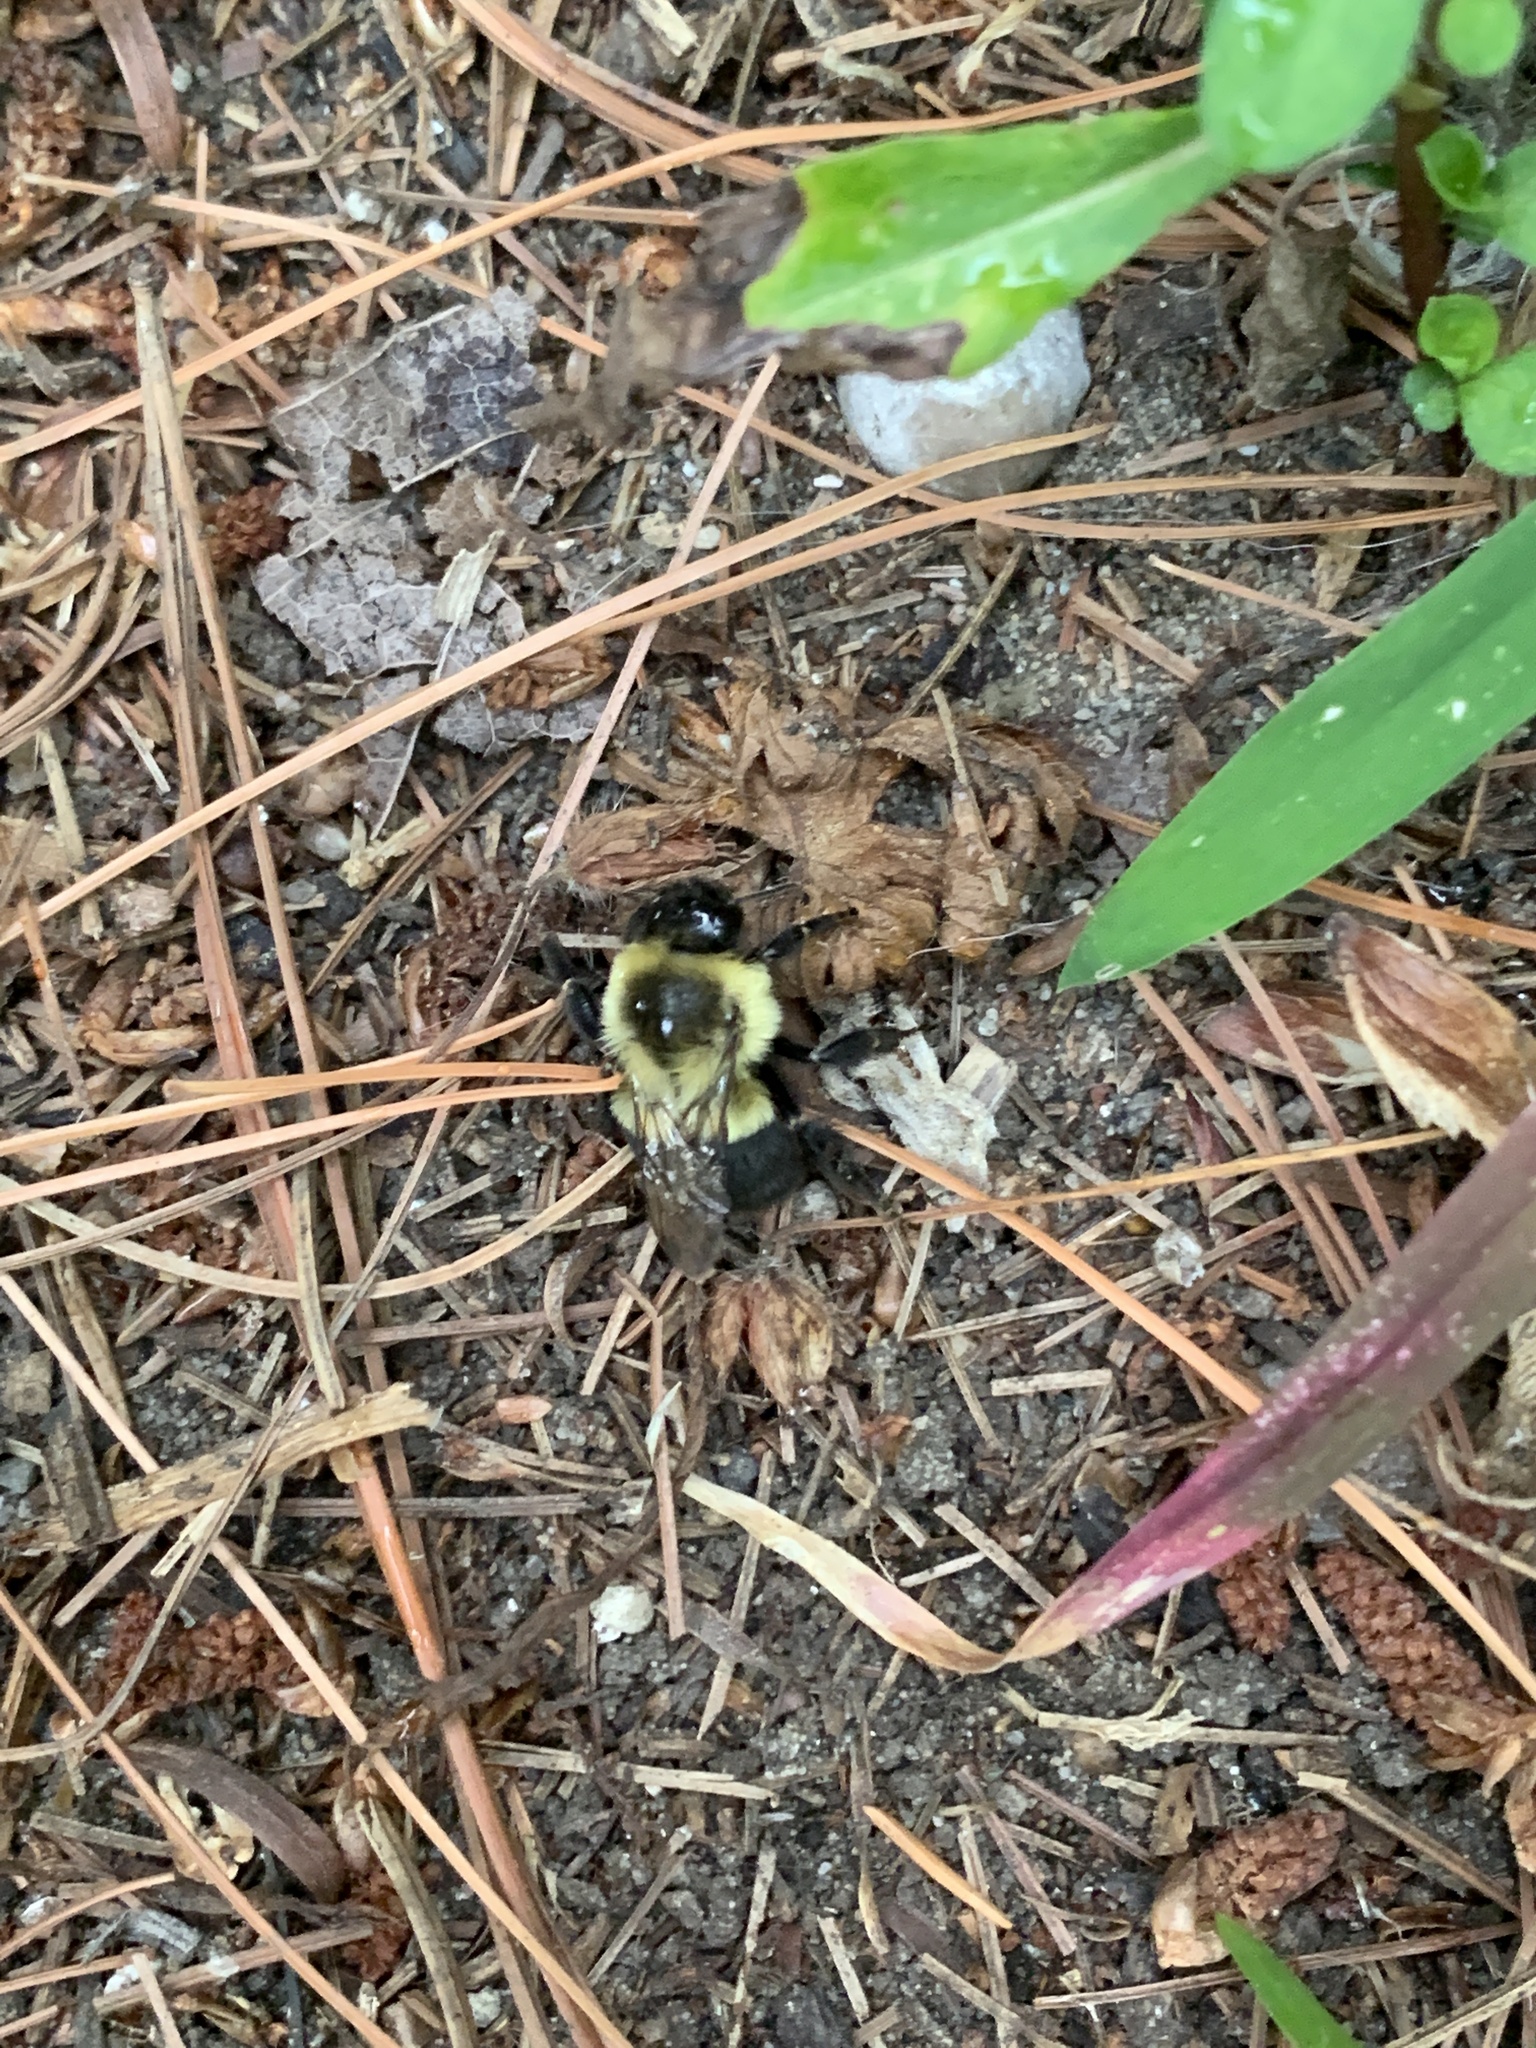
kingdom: Animalia
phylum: Arthropoda
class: Insecta
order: Hymenoptera
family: Apidae
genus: Bombus
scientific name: Bombus impatiens
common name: Common eastern bumble bee
